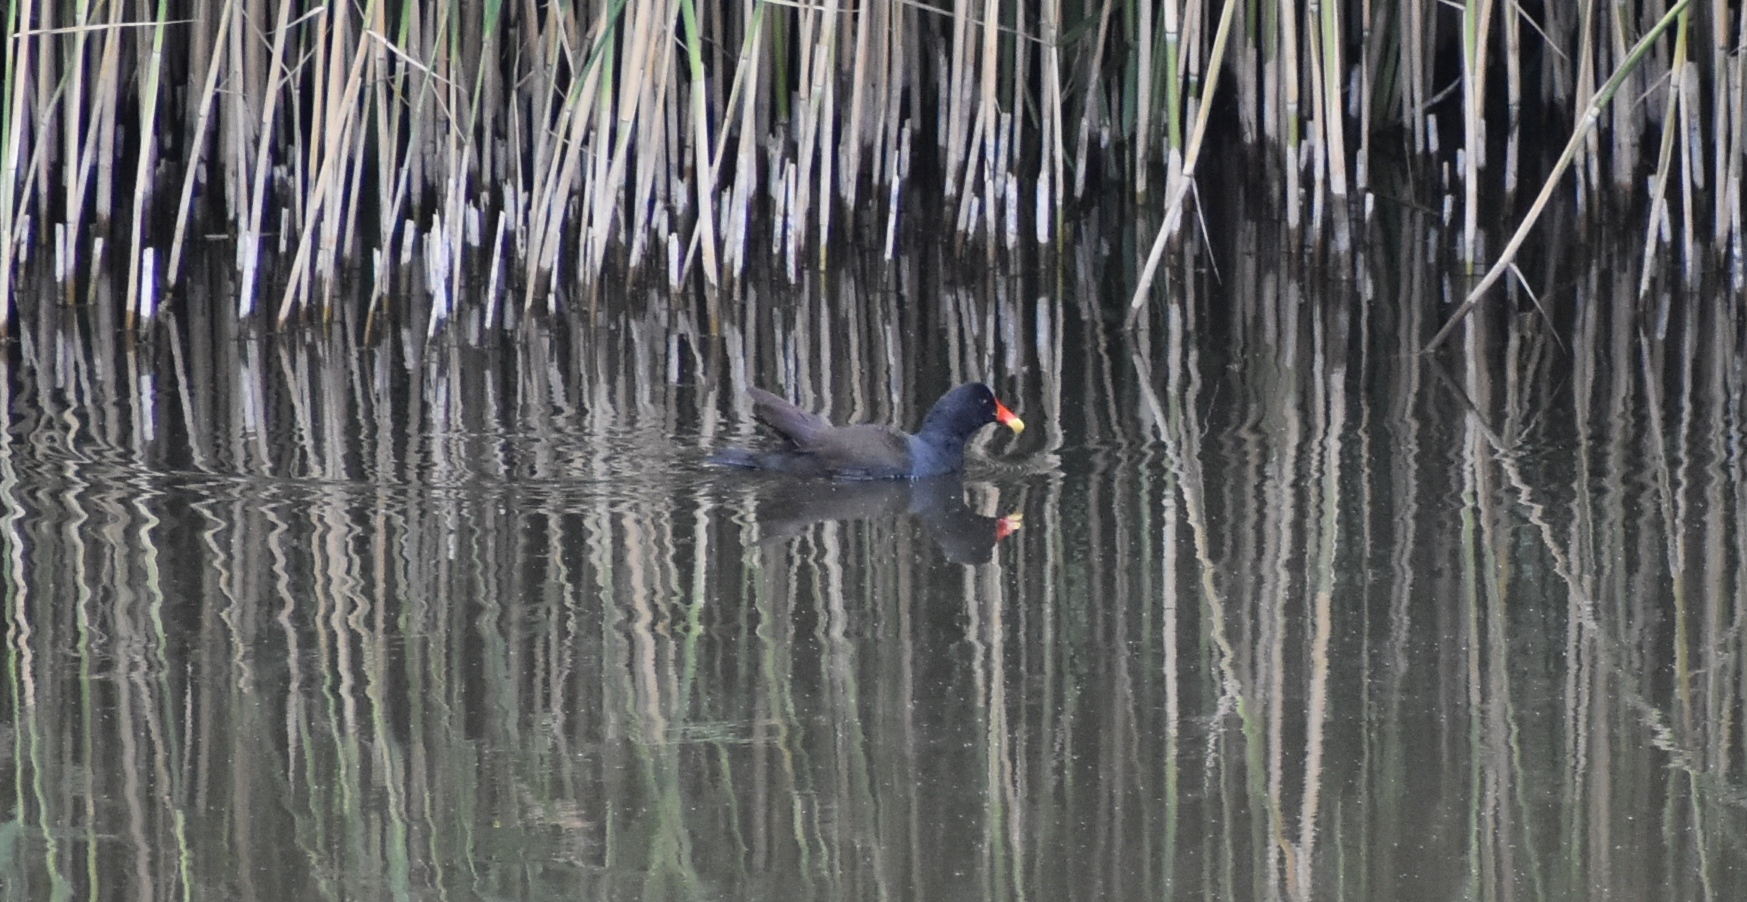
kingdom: Animalia
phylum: Chordata
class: Aves
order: Gruiformes
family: Rallidae
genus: Gallinula
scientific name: Gallinula chloropus
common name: Common moorhen
